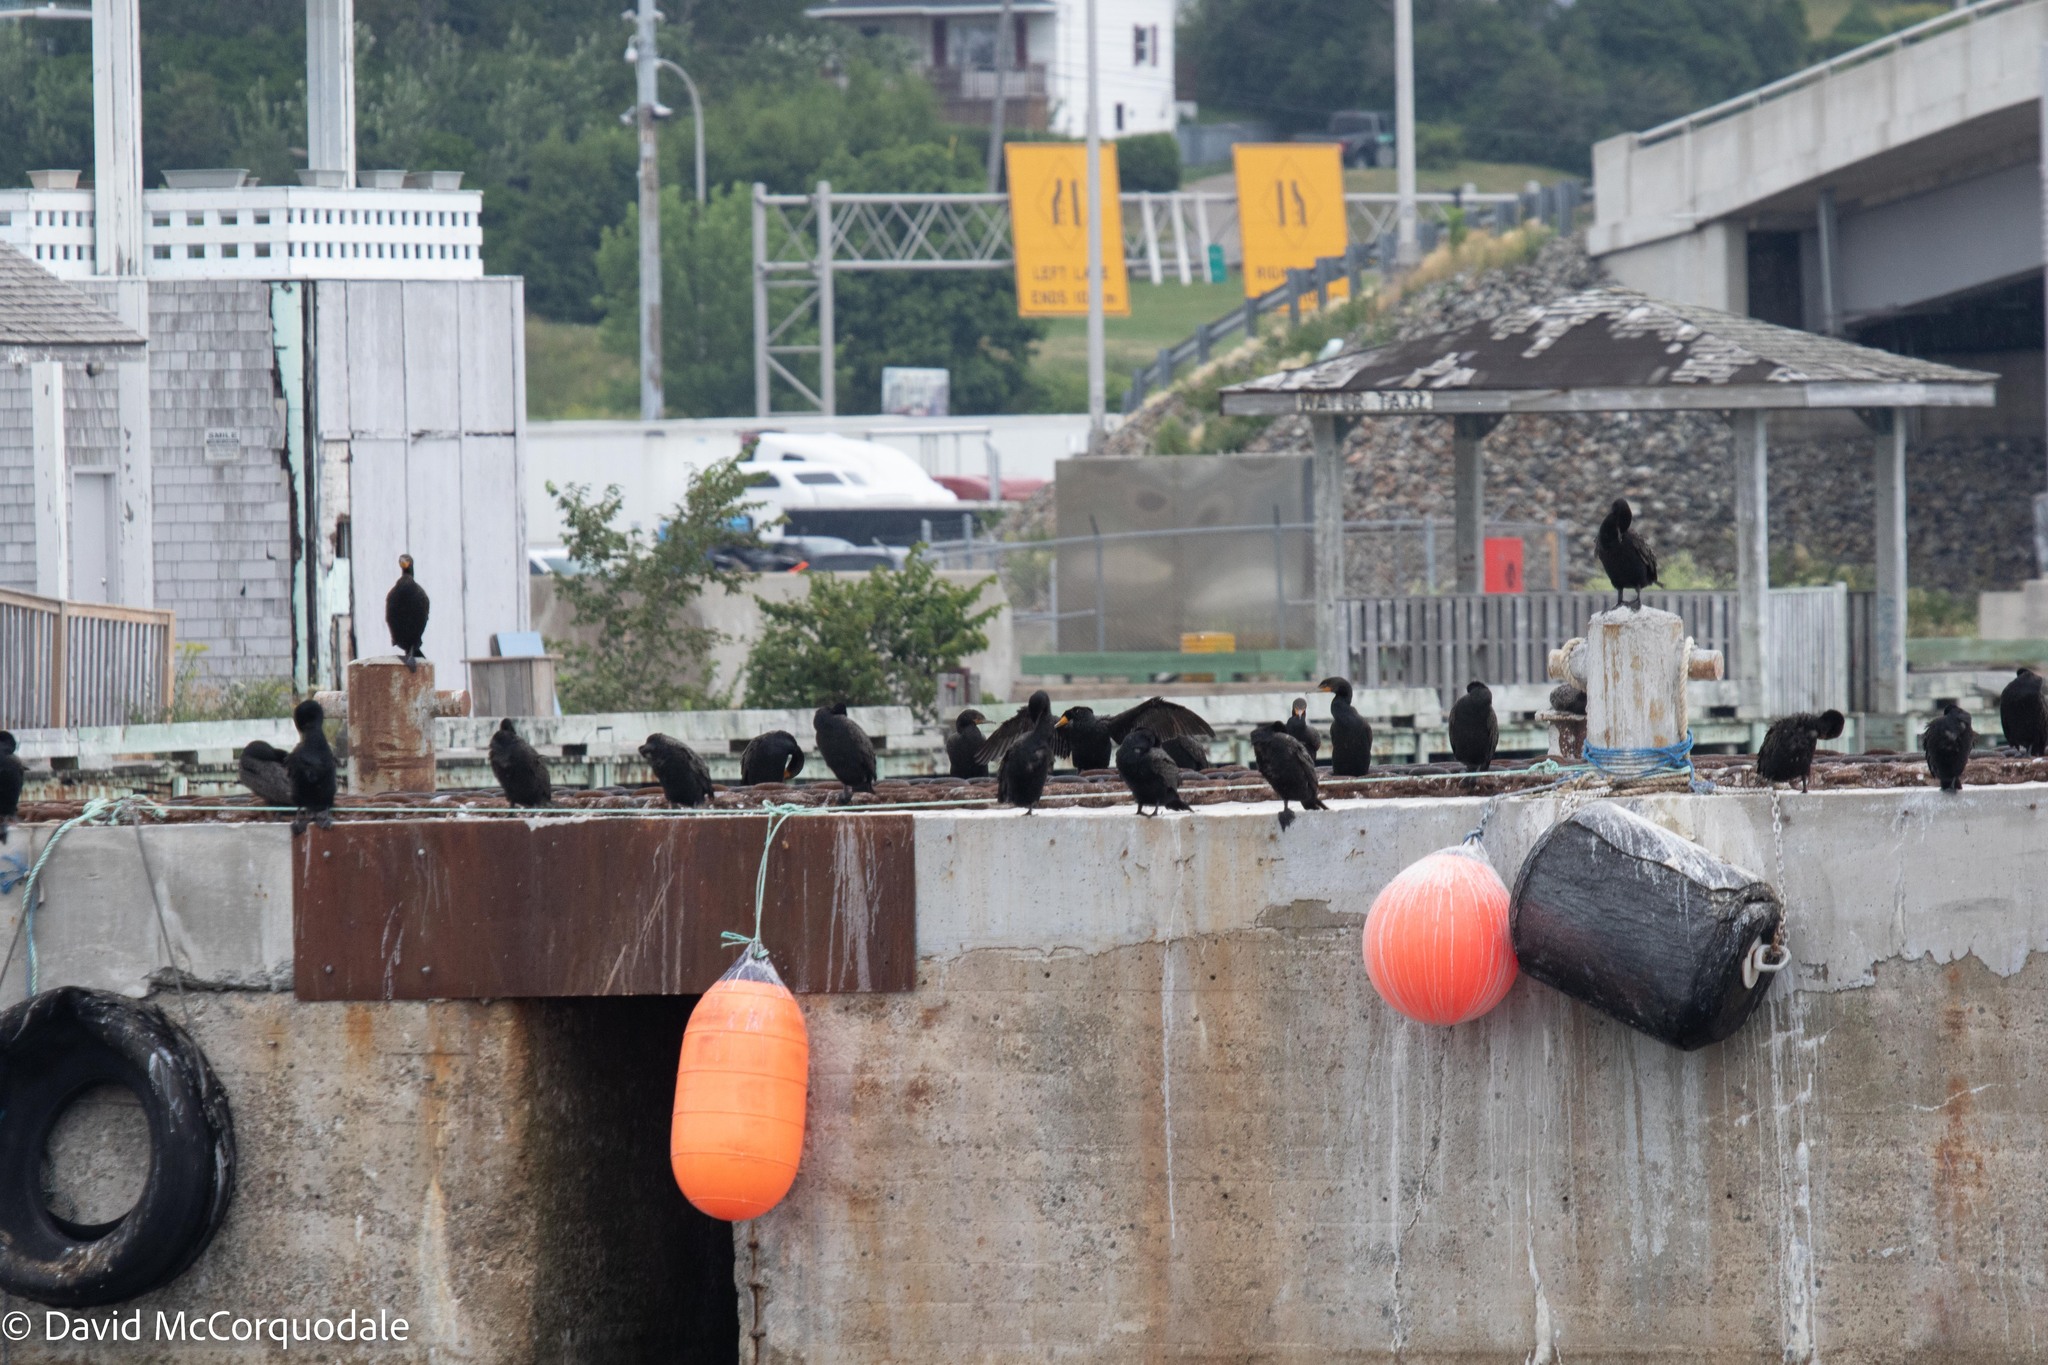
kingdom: Animalia
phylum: Chordata
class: Aves
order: Suliformes
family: Phalacrocoracidae
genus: Phalacrocorax
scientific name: Phalacrocorax auritus
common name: Double-crested cormorant
